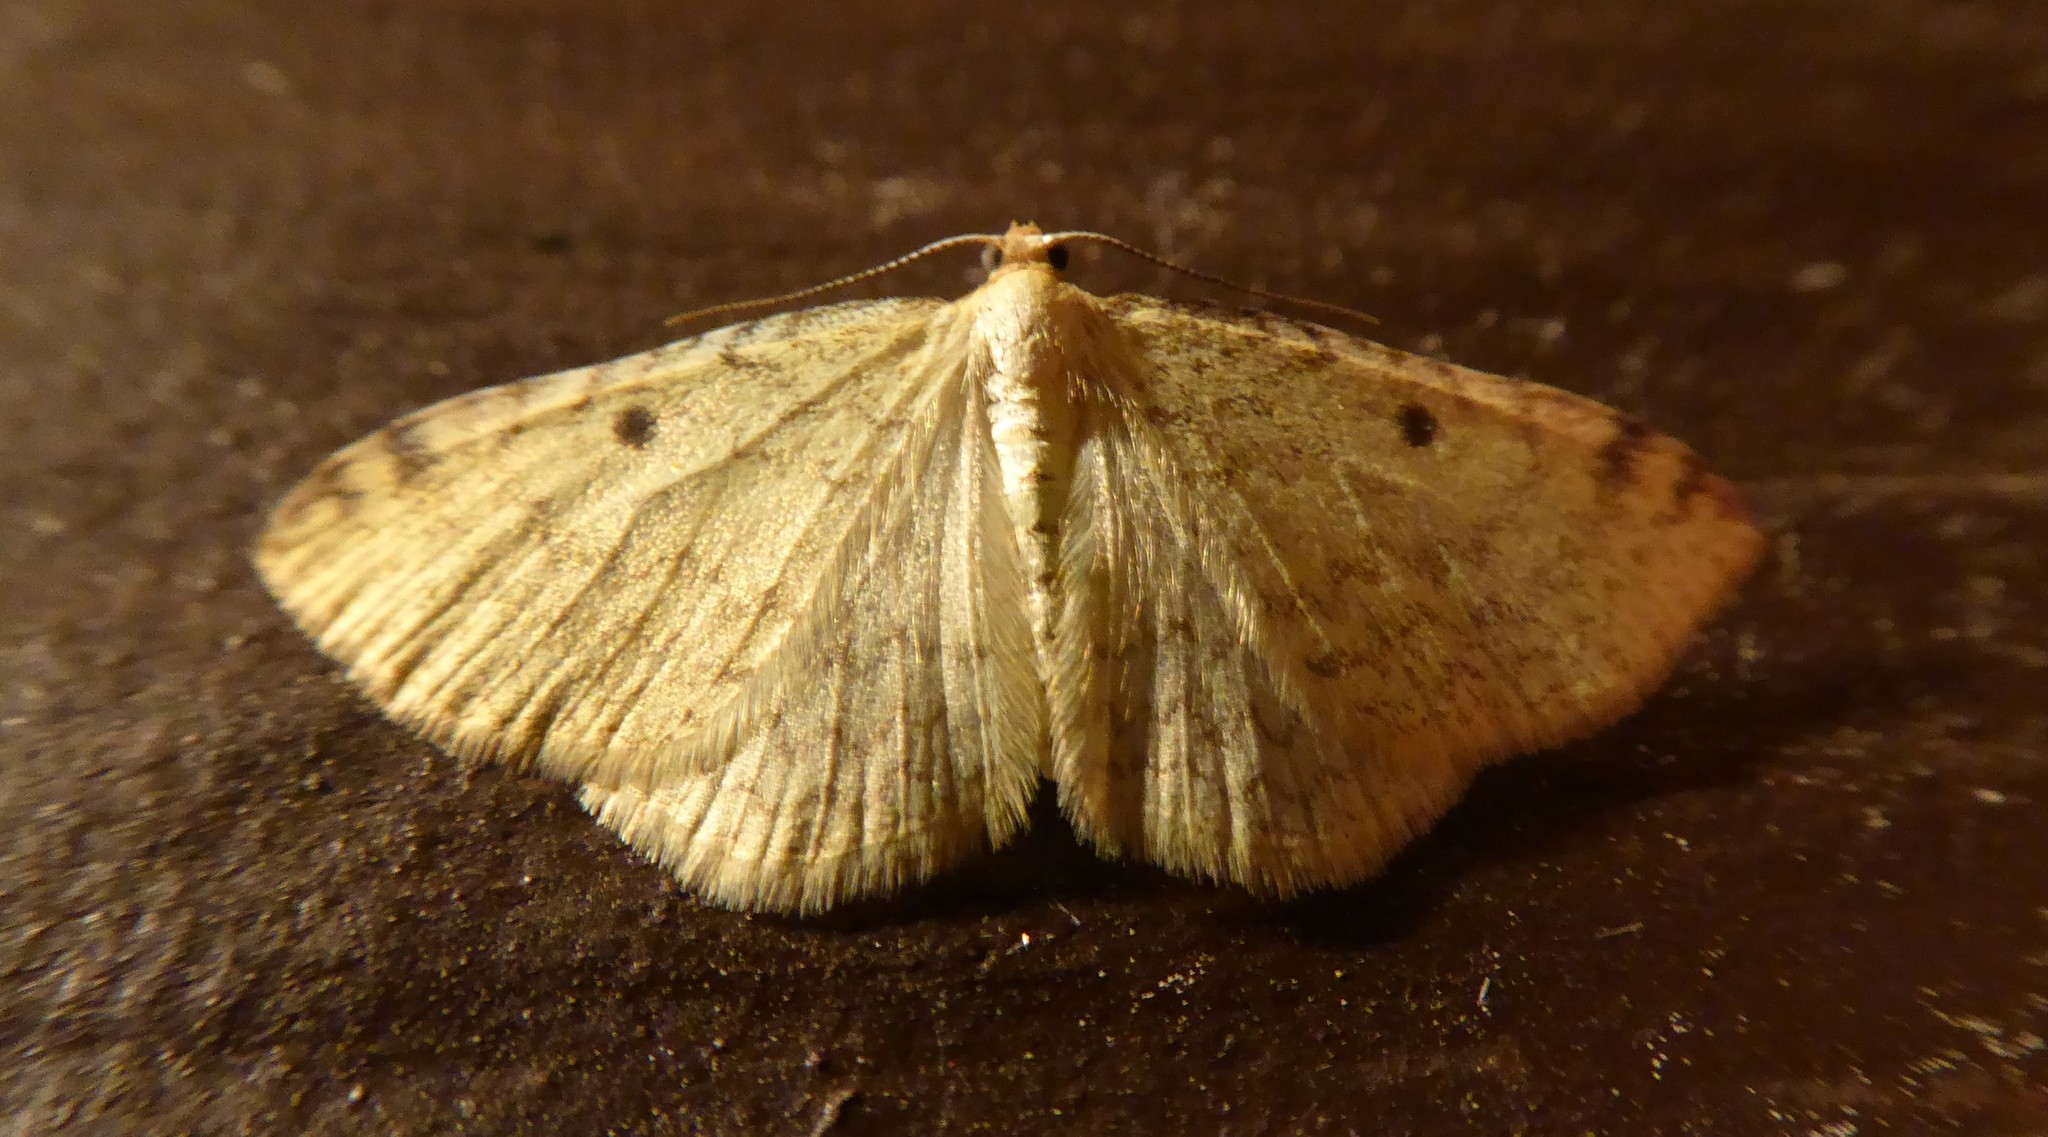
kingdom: Animalia
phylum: Arthropoda
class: Insecta
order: Lepidoptera
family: Geometridae
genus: Epiphryne
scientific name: Epiphryne undosata
